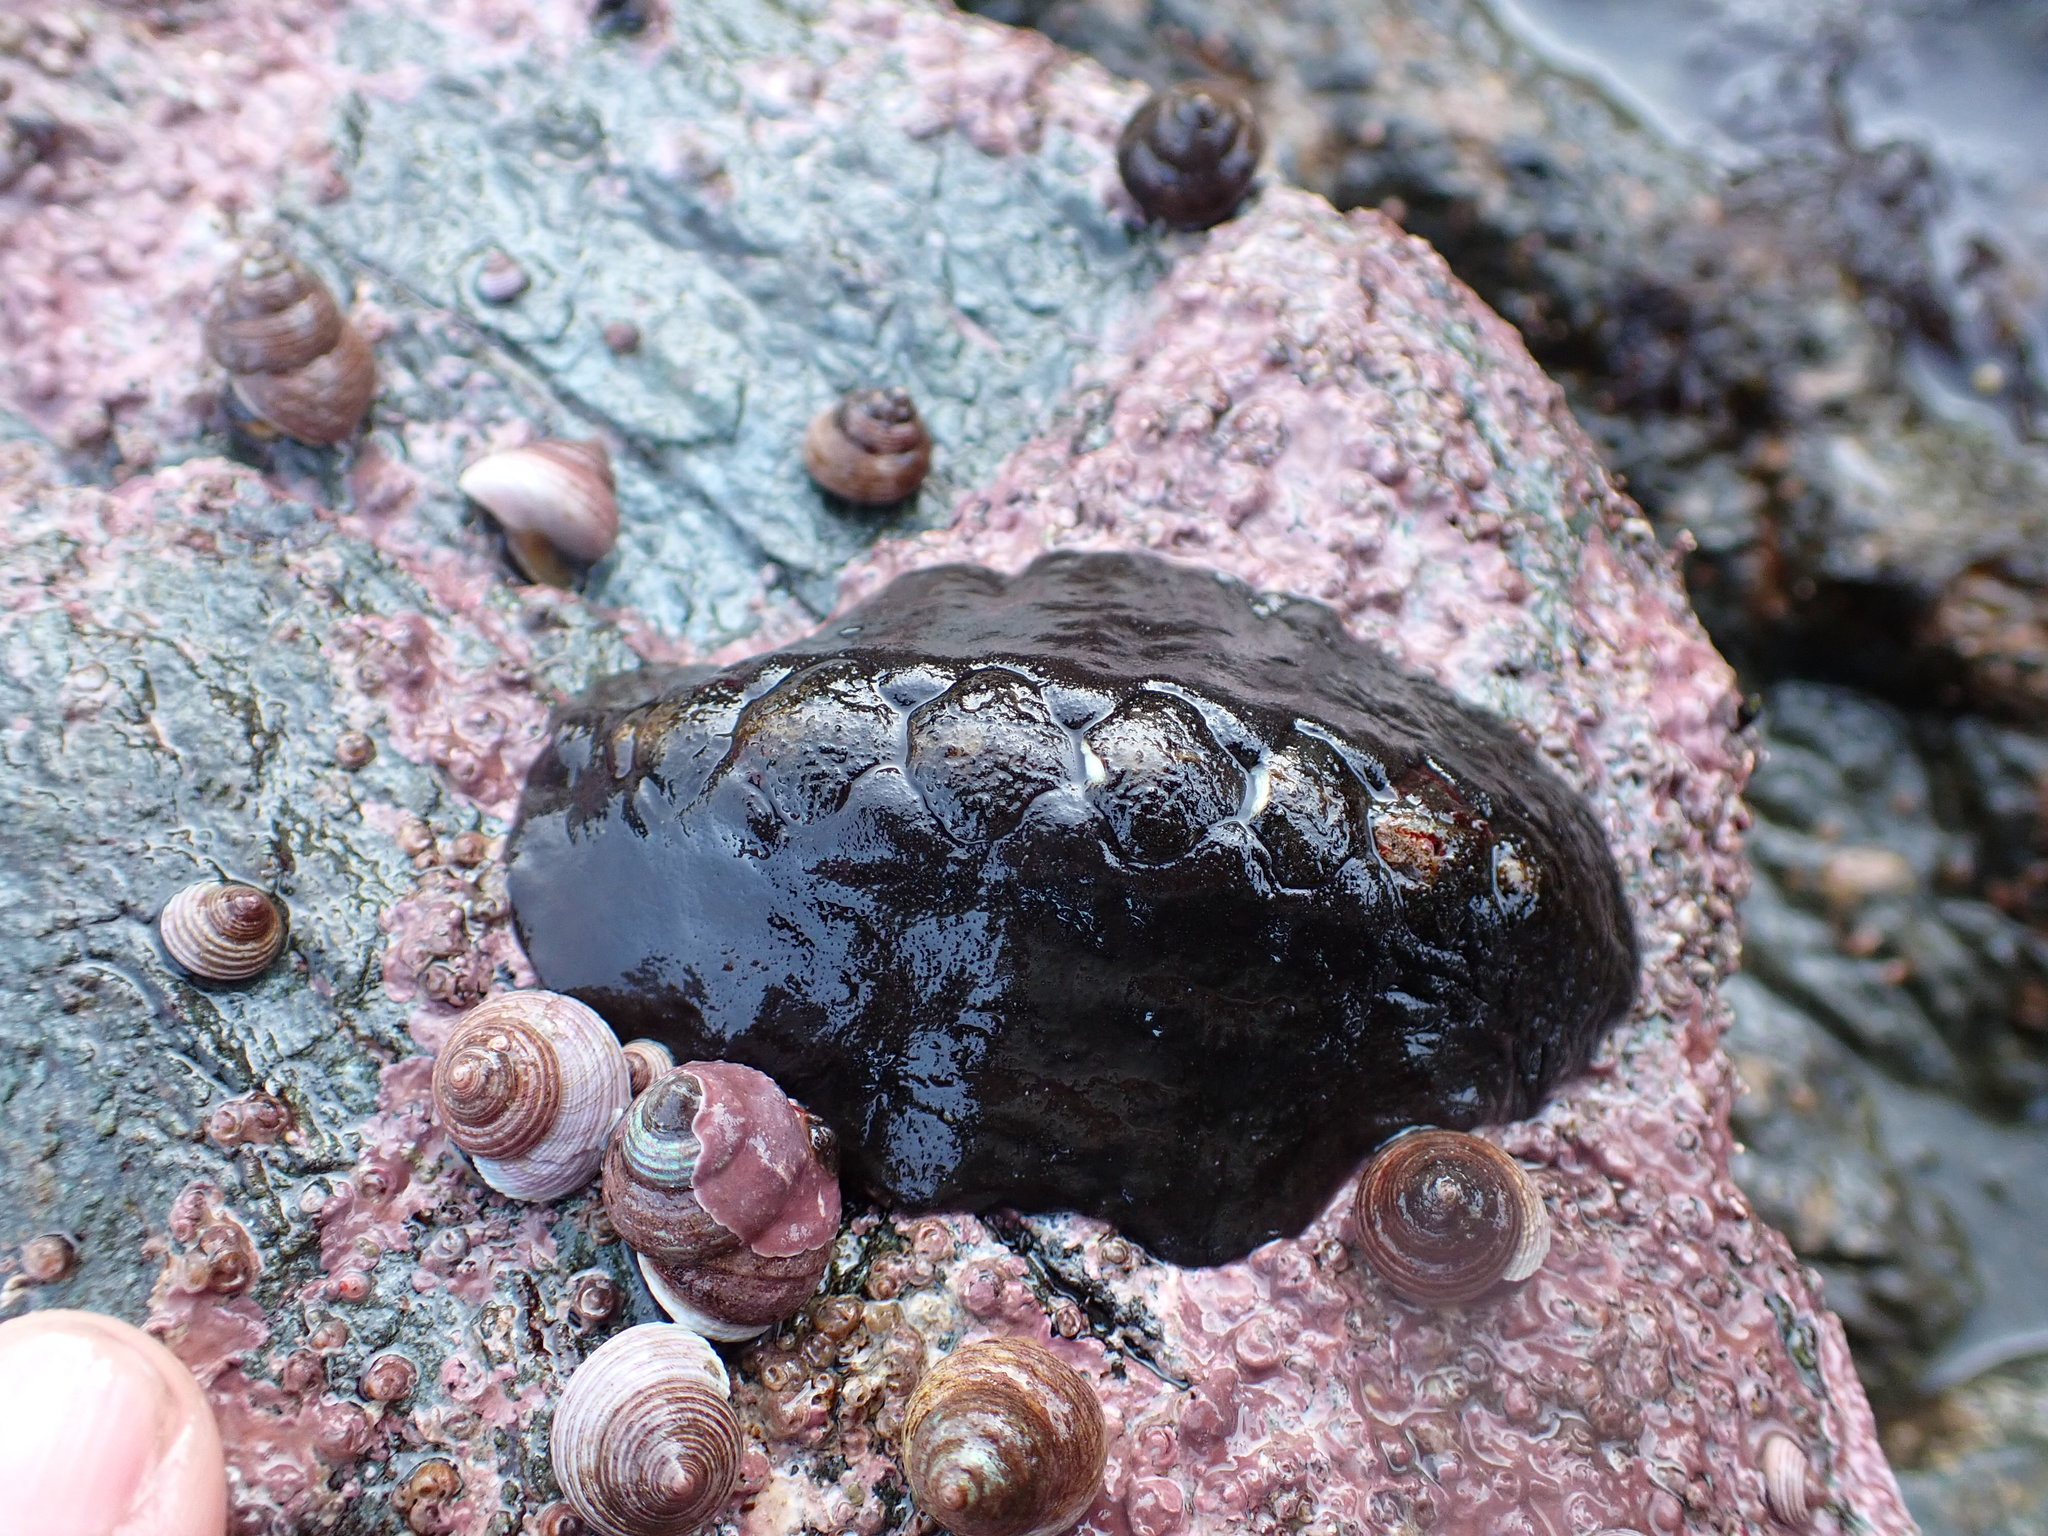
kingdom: Animalia
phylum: Mollusca
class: Polyplacophora
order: Chitonida
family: Mopaliidae
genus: Katharina
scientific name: Katharina tunicata
